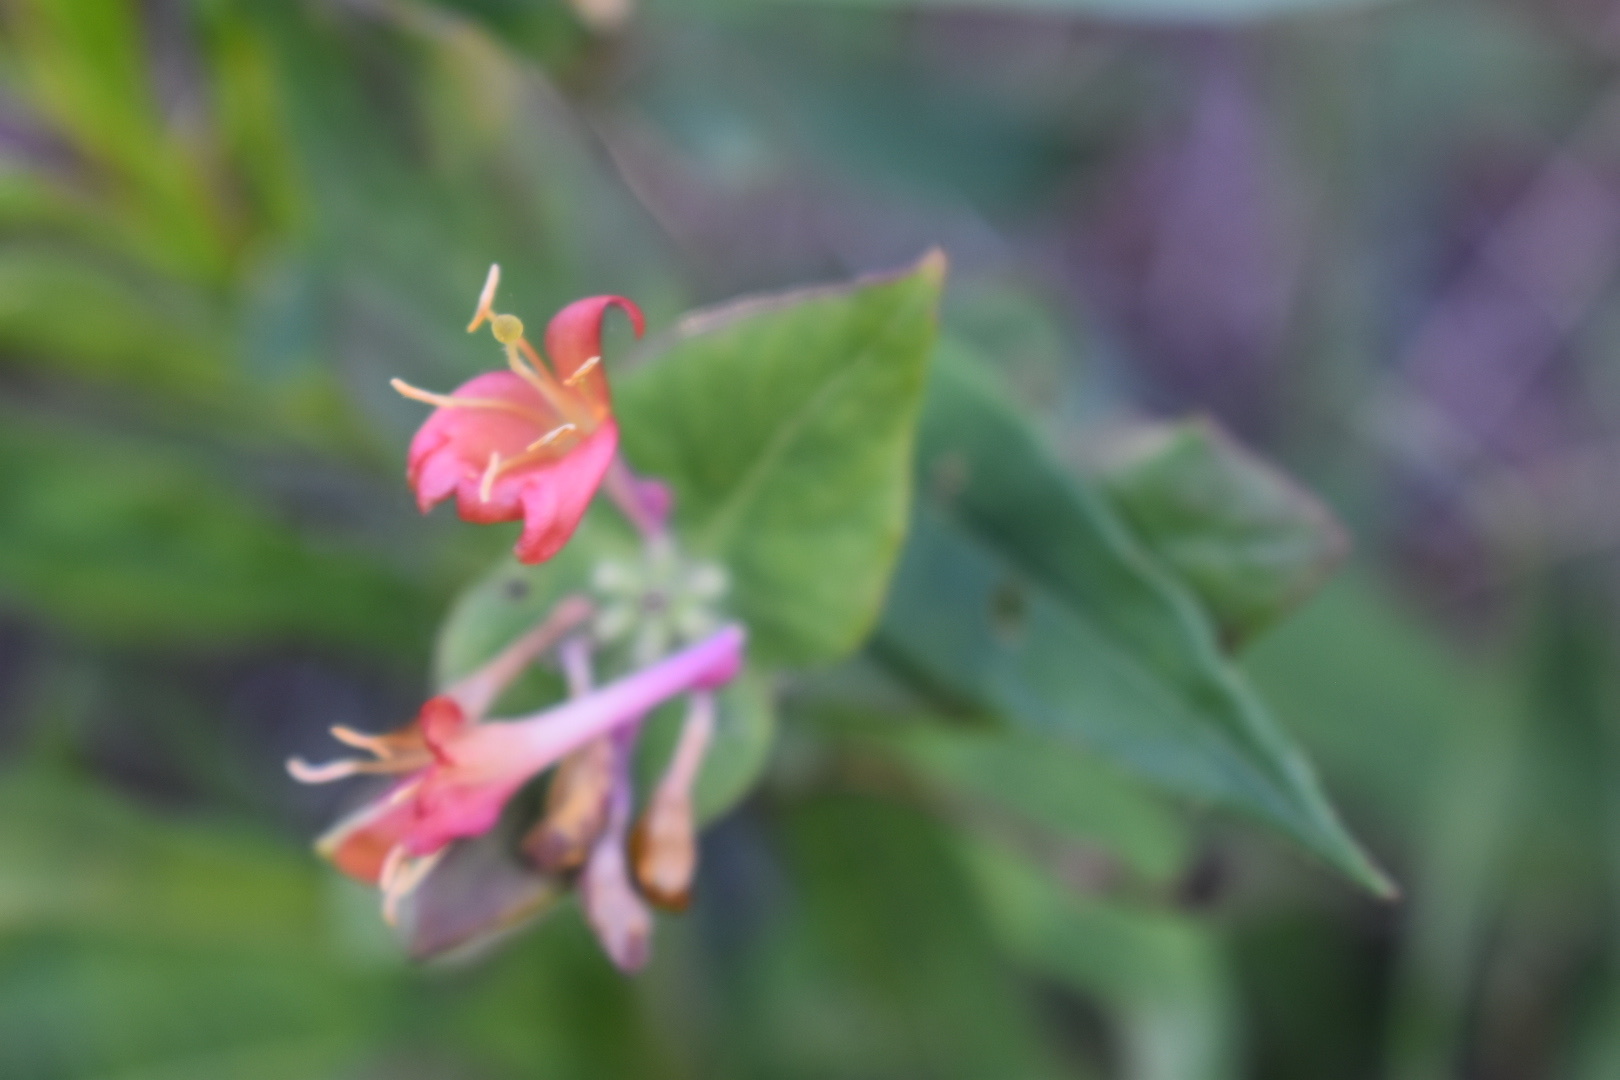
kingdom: Plantae
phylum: Tracheophyta
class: Magnoliopsida
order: Dipsacales
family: Caprifoliaceae
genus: Lonicera
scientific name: Lonicera dioica
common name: Limber honeysuckle
